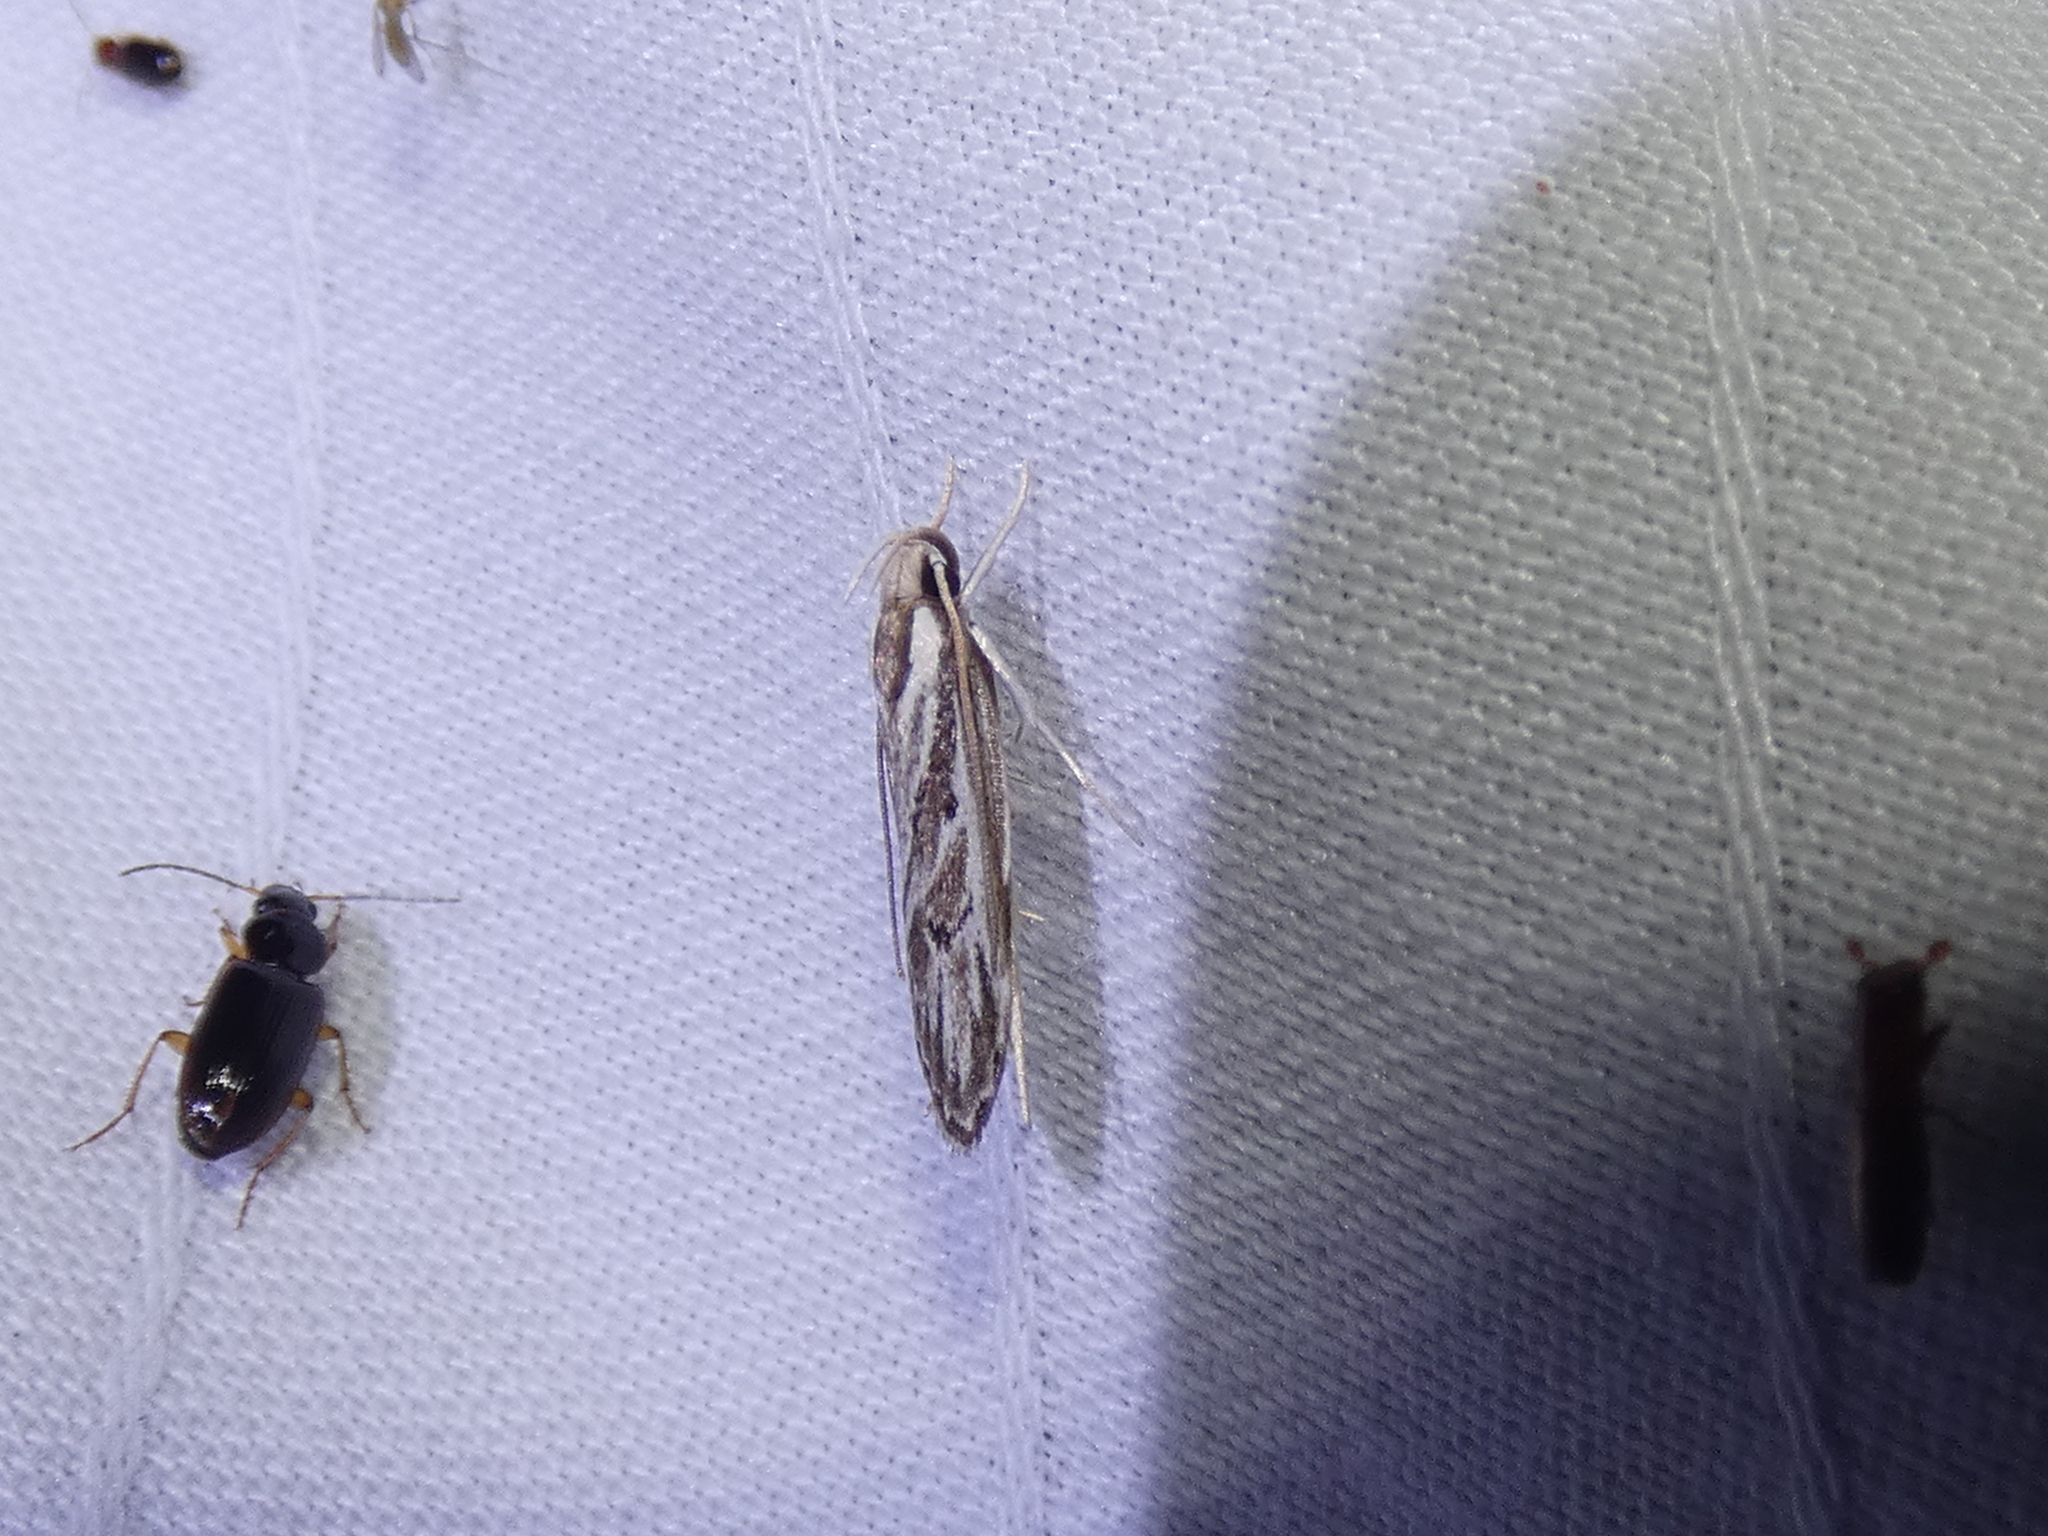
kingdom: Animalia
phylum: Arthropoda
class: Insecta
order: Lepidoptera
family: Depressariidae
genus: Eupragia
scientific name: Eupragia hospita
